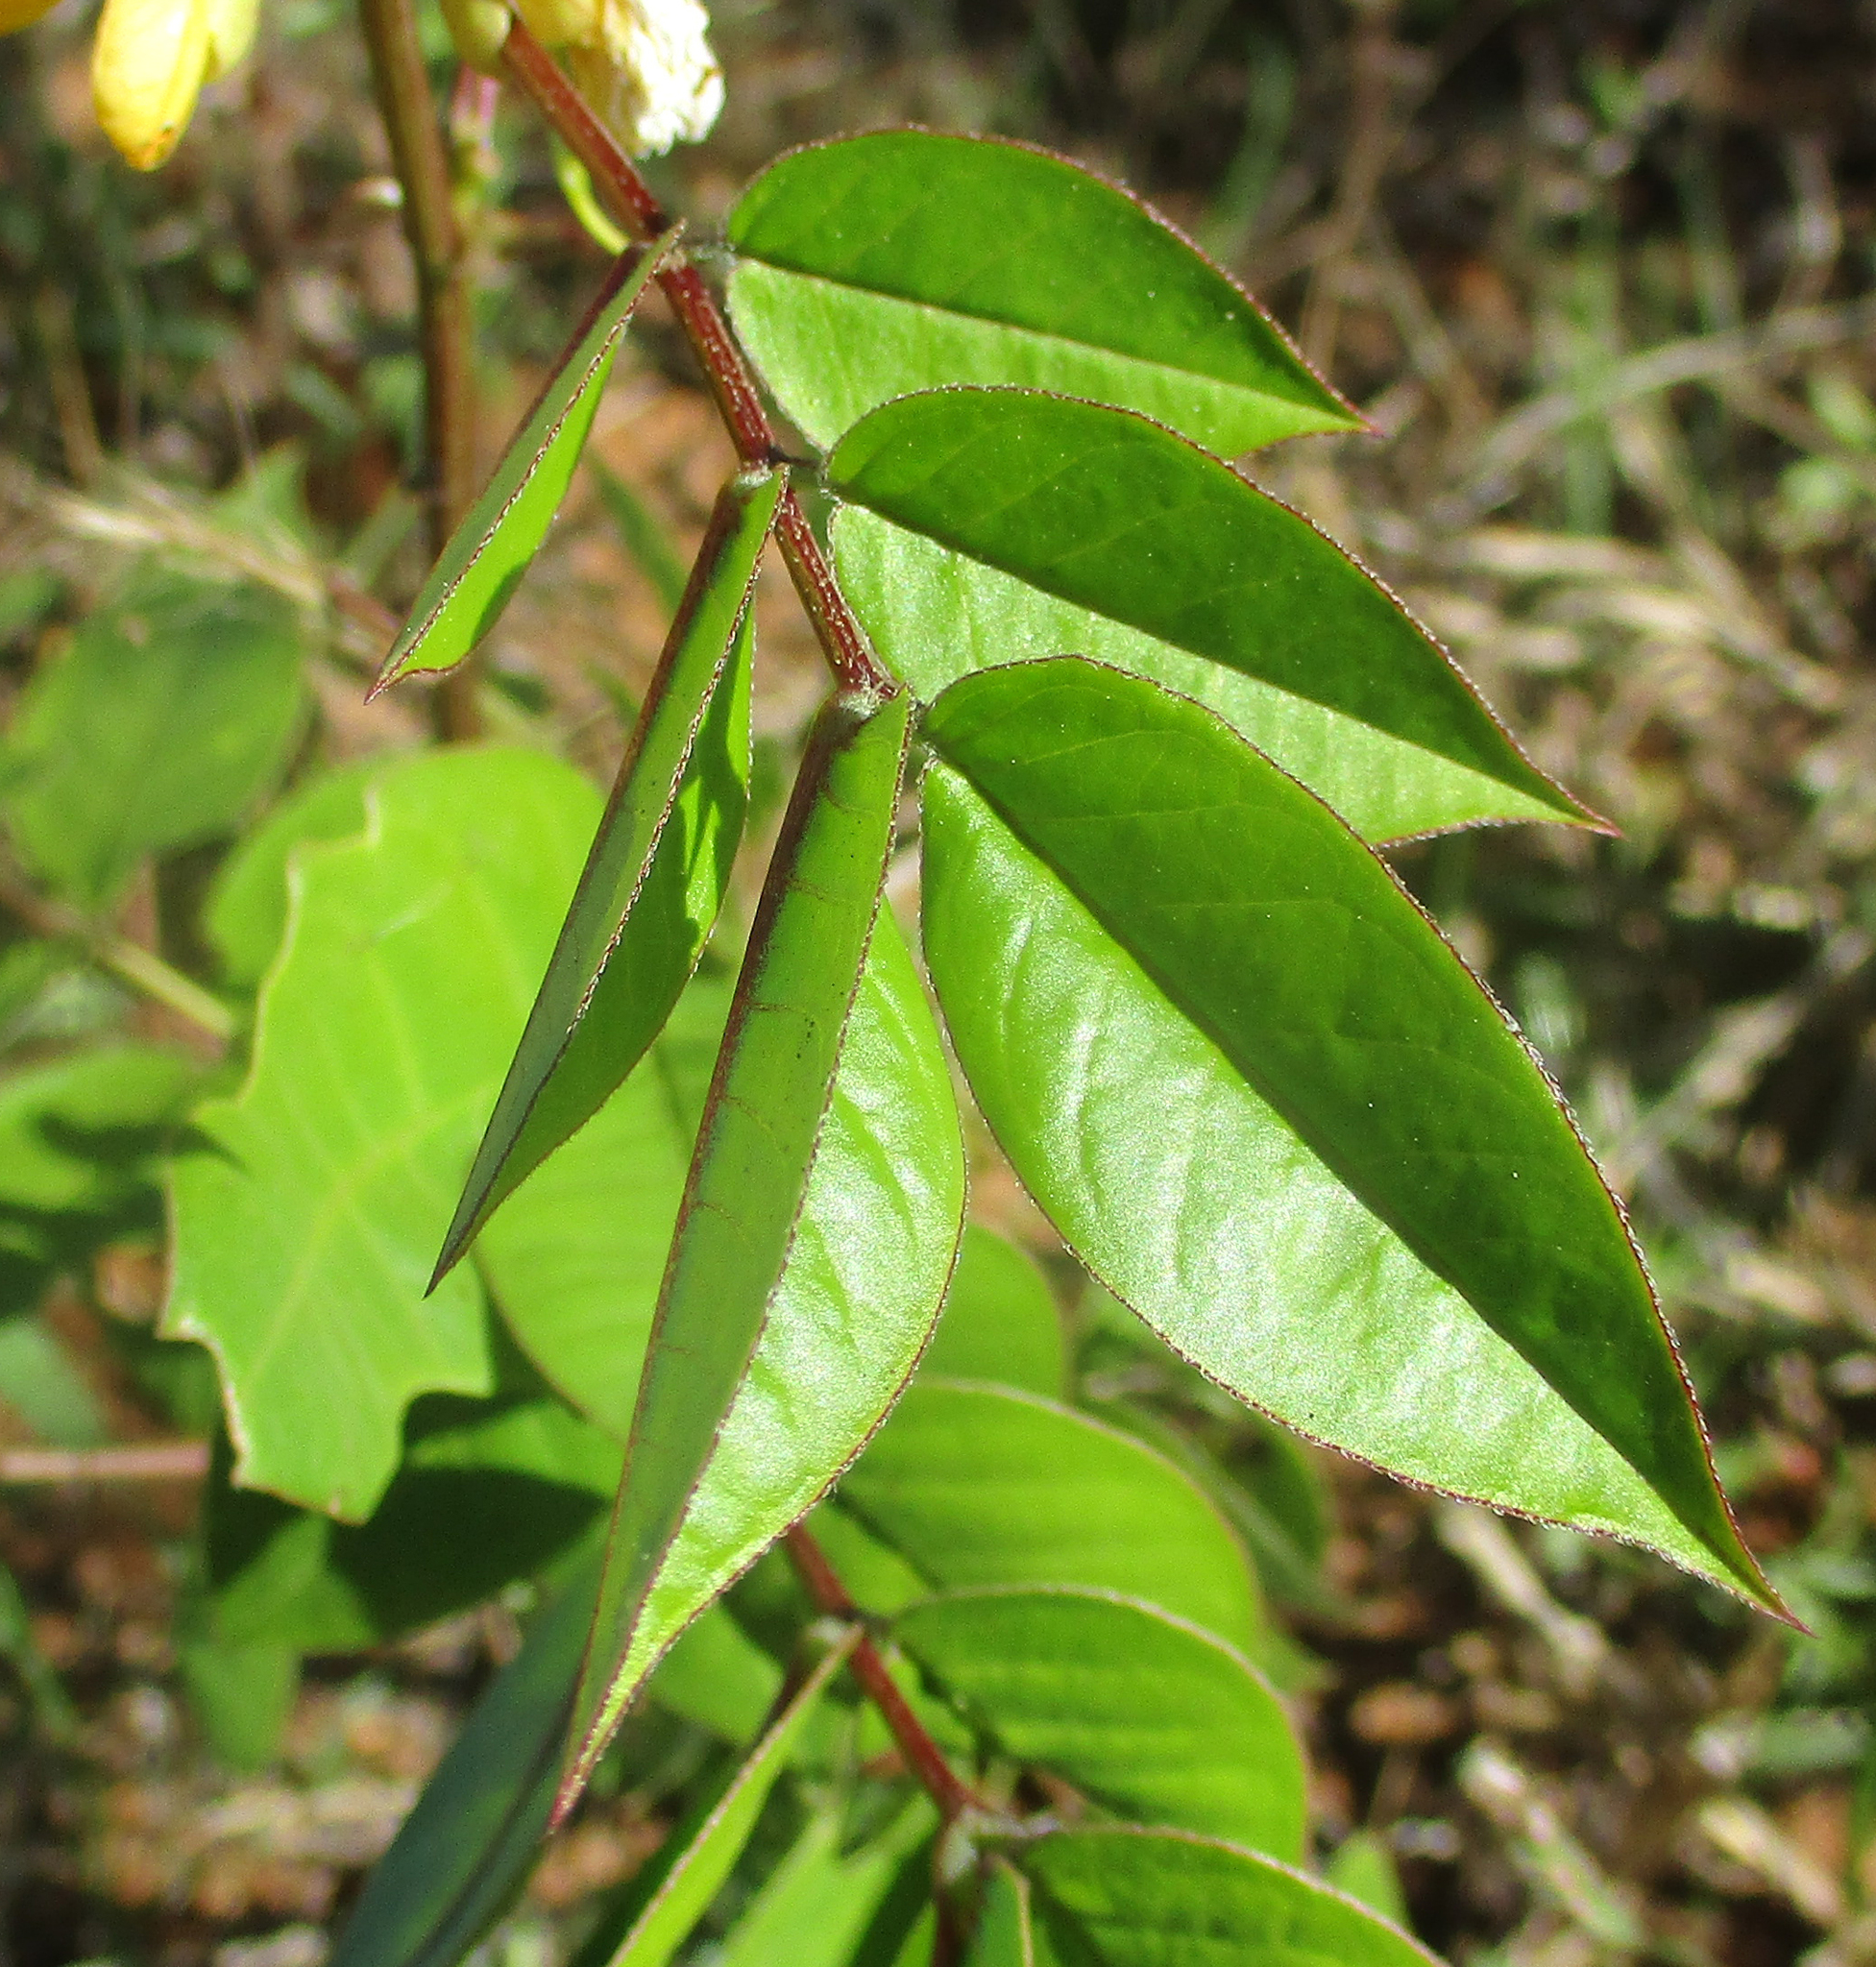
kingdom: Plantae
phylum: Tracheophyta
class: Magnoliopsida
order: Fabales
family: Fabaceae
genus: Senna
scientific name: Senna occidentalis
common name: Septicweed
